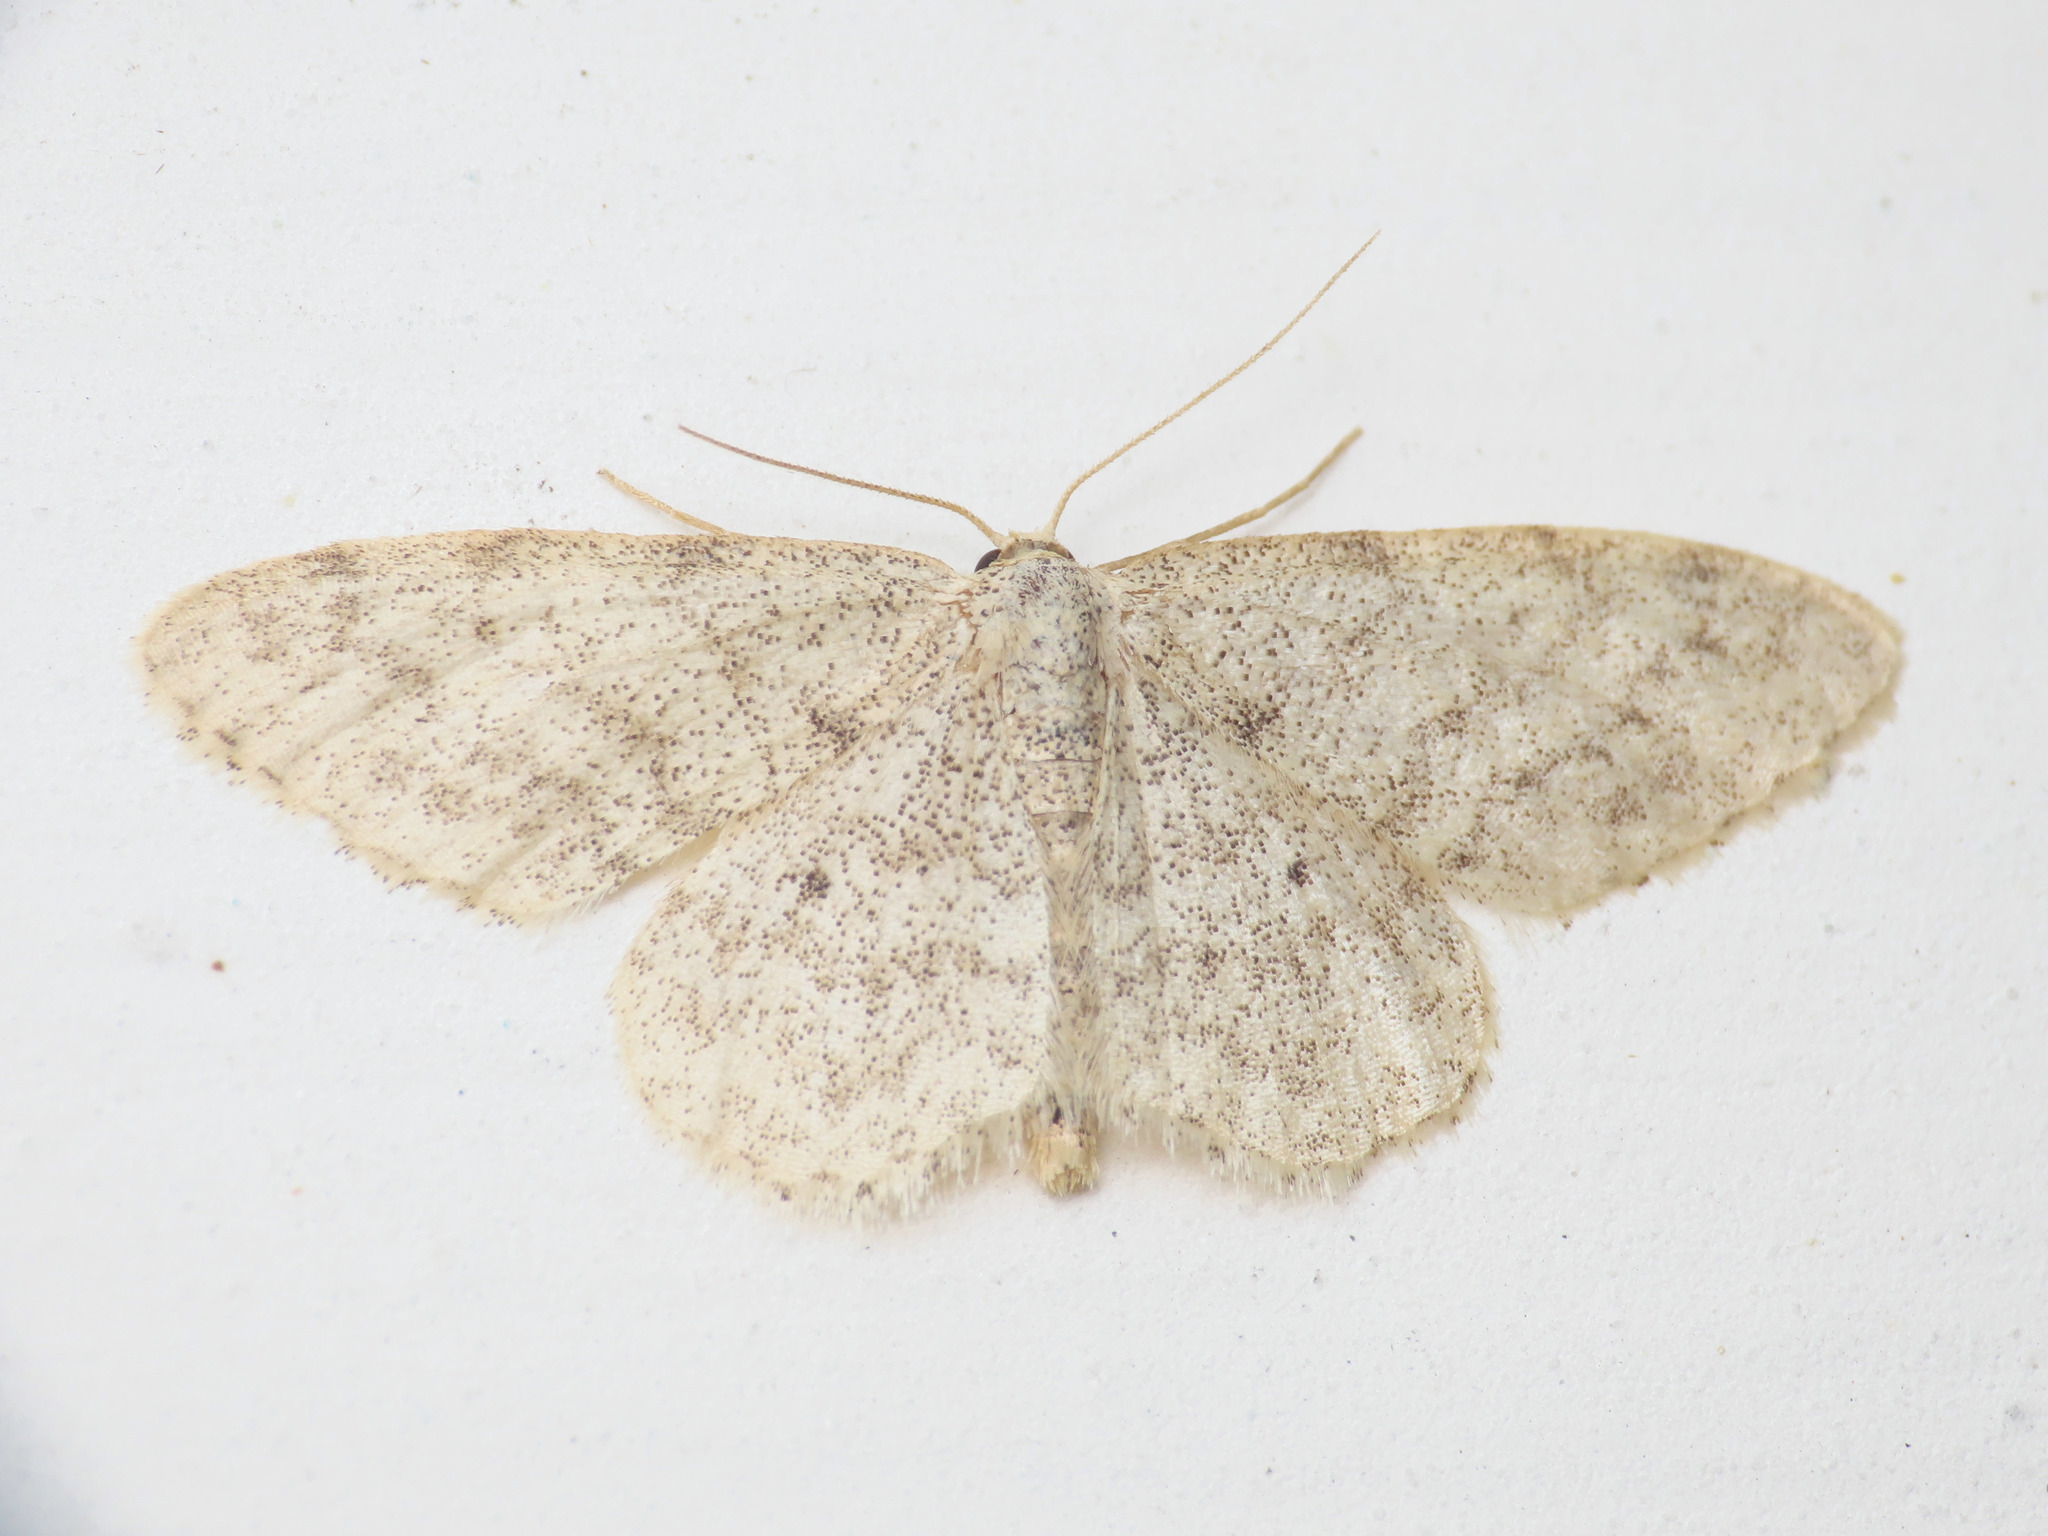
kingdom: Animalia
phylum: Arthropoda
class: Insecta
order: Lepidoptera
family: Geometridae
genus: Idaea
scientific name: Idaea typicata
